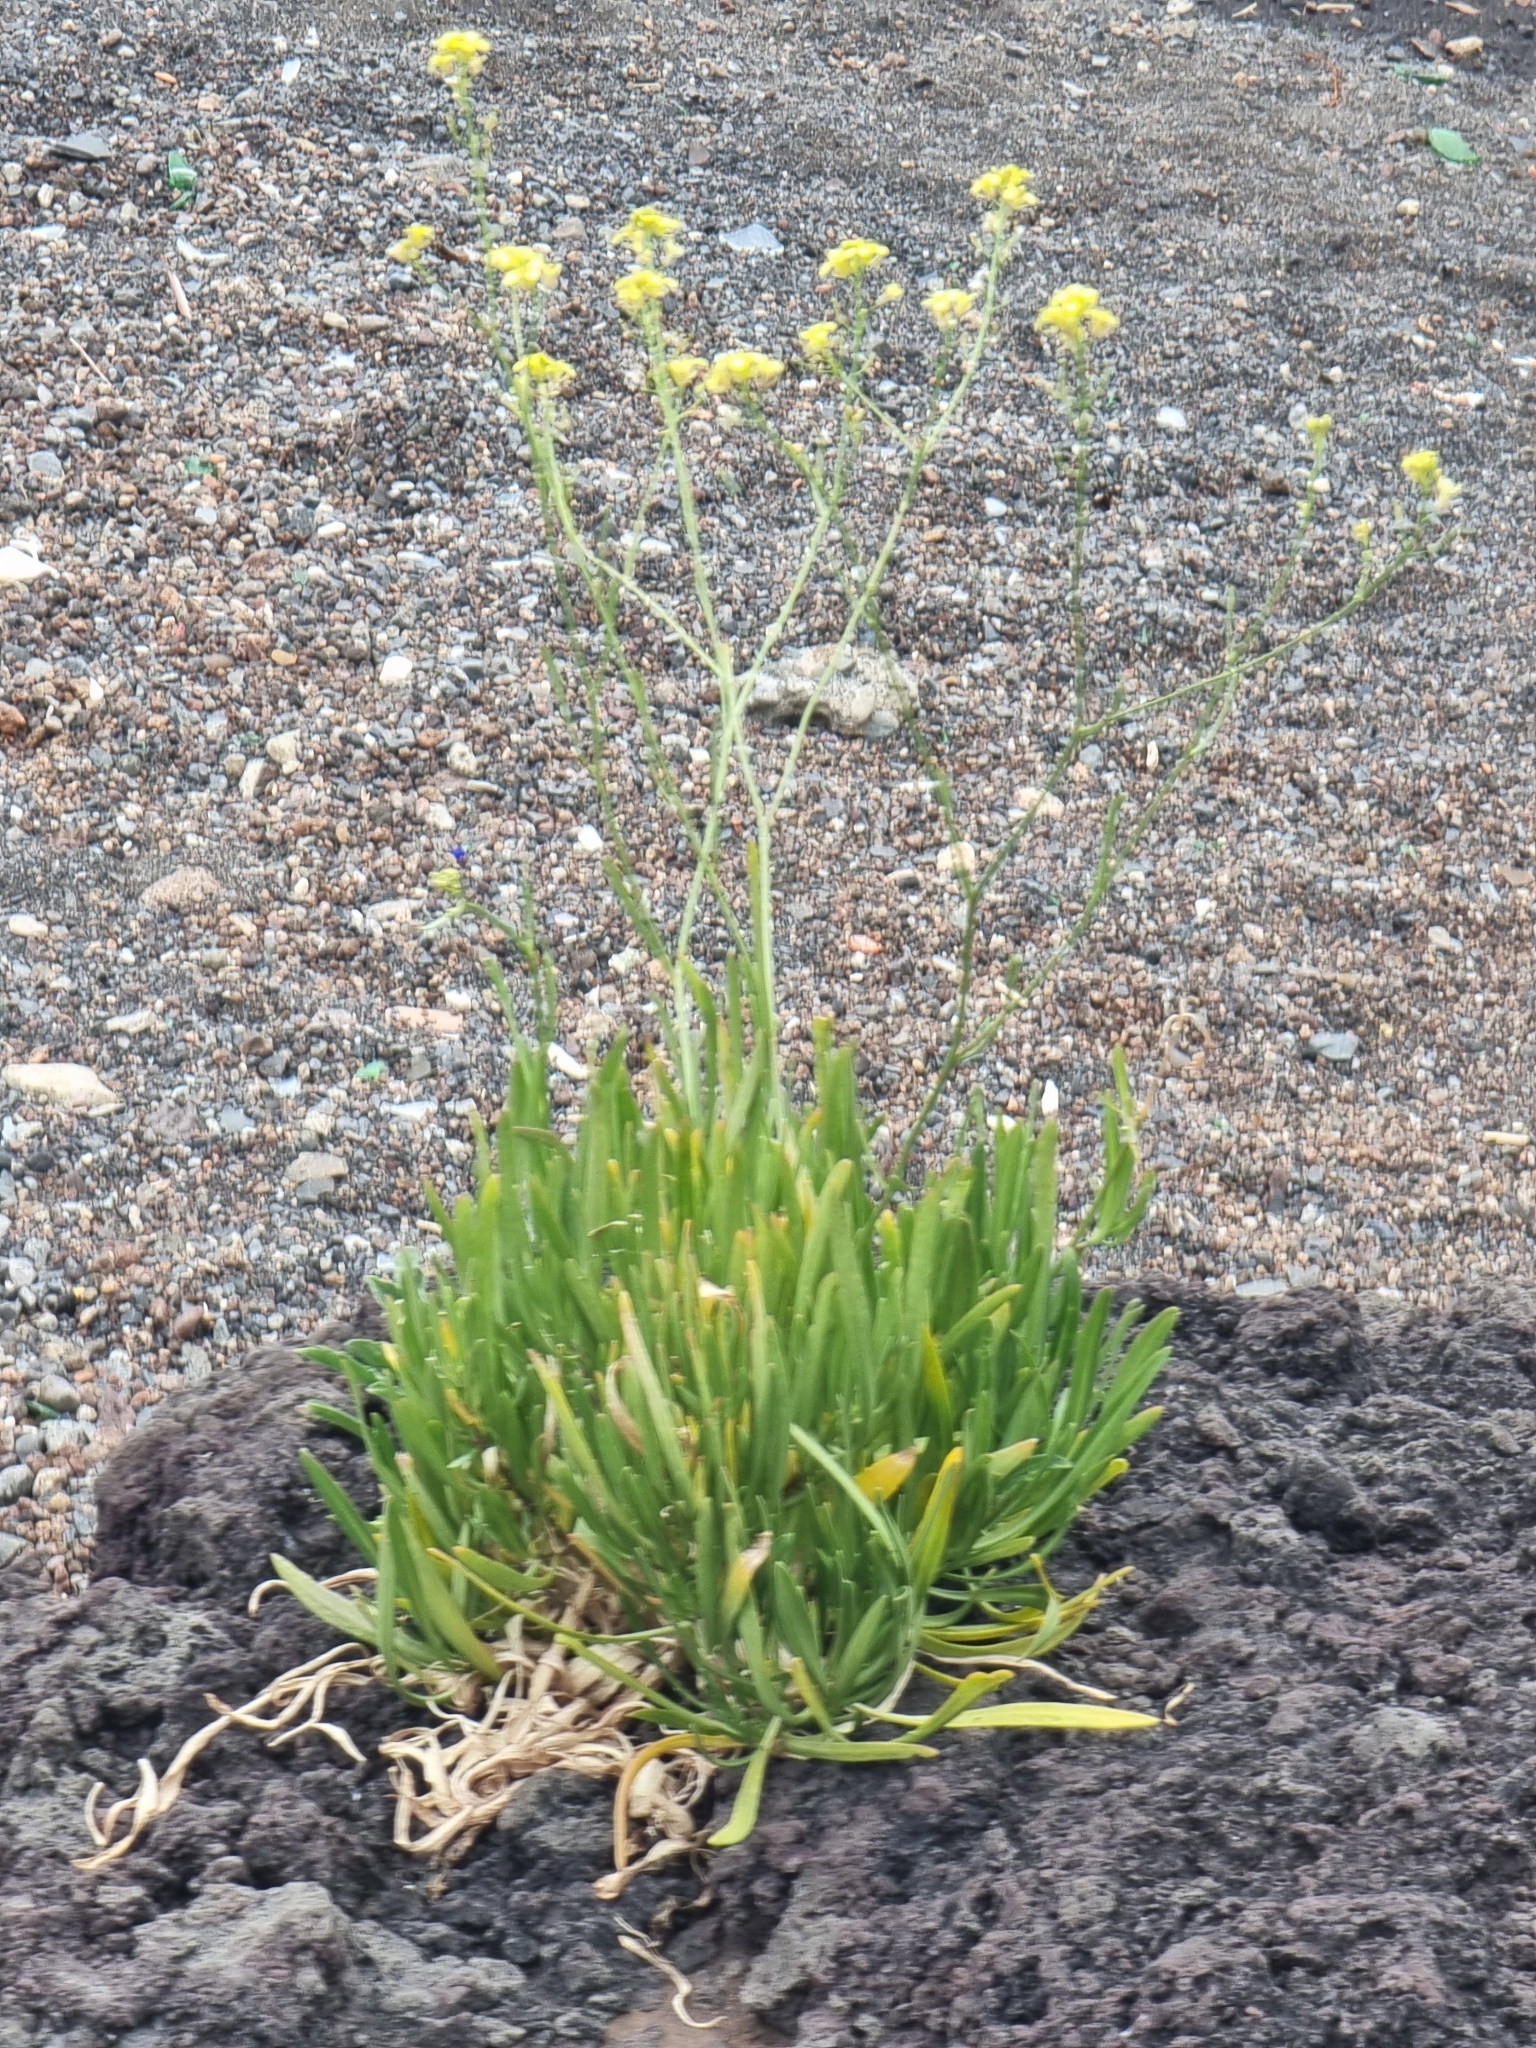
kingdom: Plantae
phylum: Tracheophyta
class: Magnoliopsida
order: Brassicales
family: Brassicaceae
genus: Sinapidendron
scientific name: Sinapidendron angustifolium
